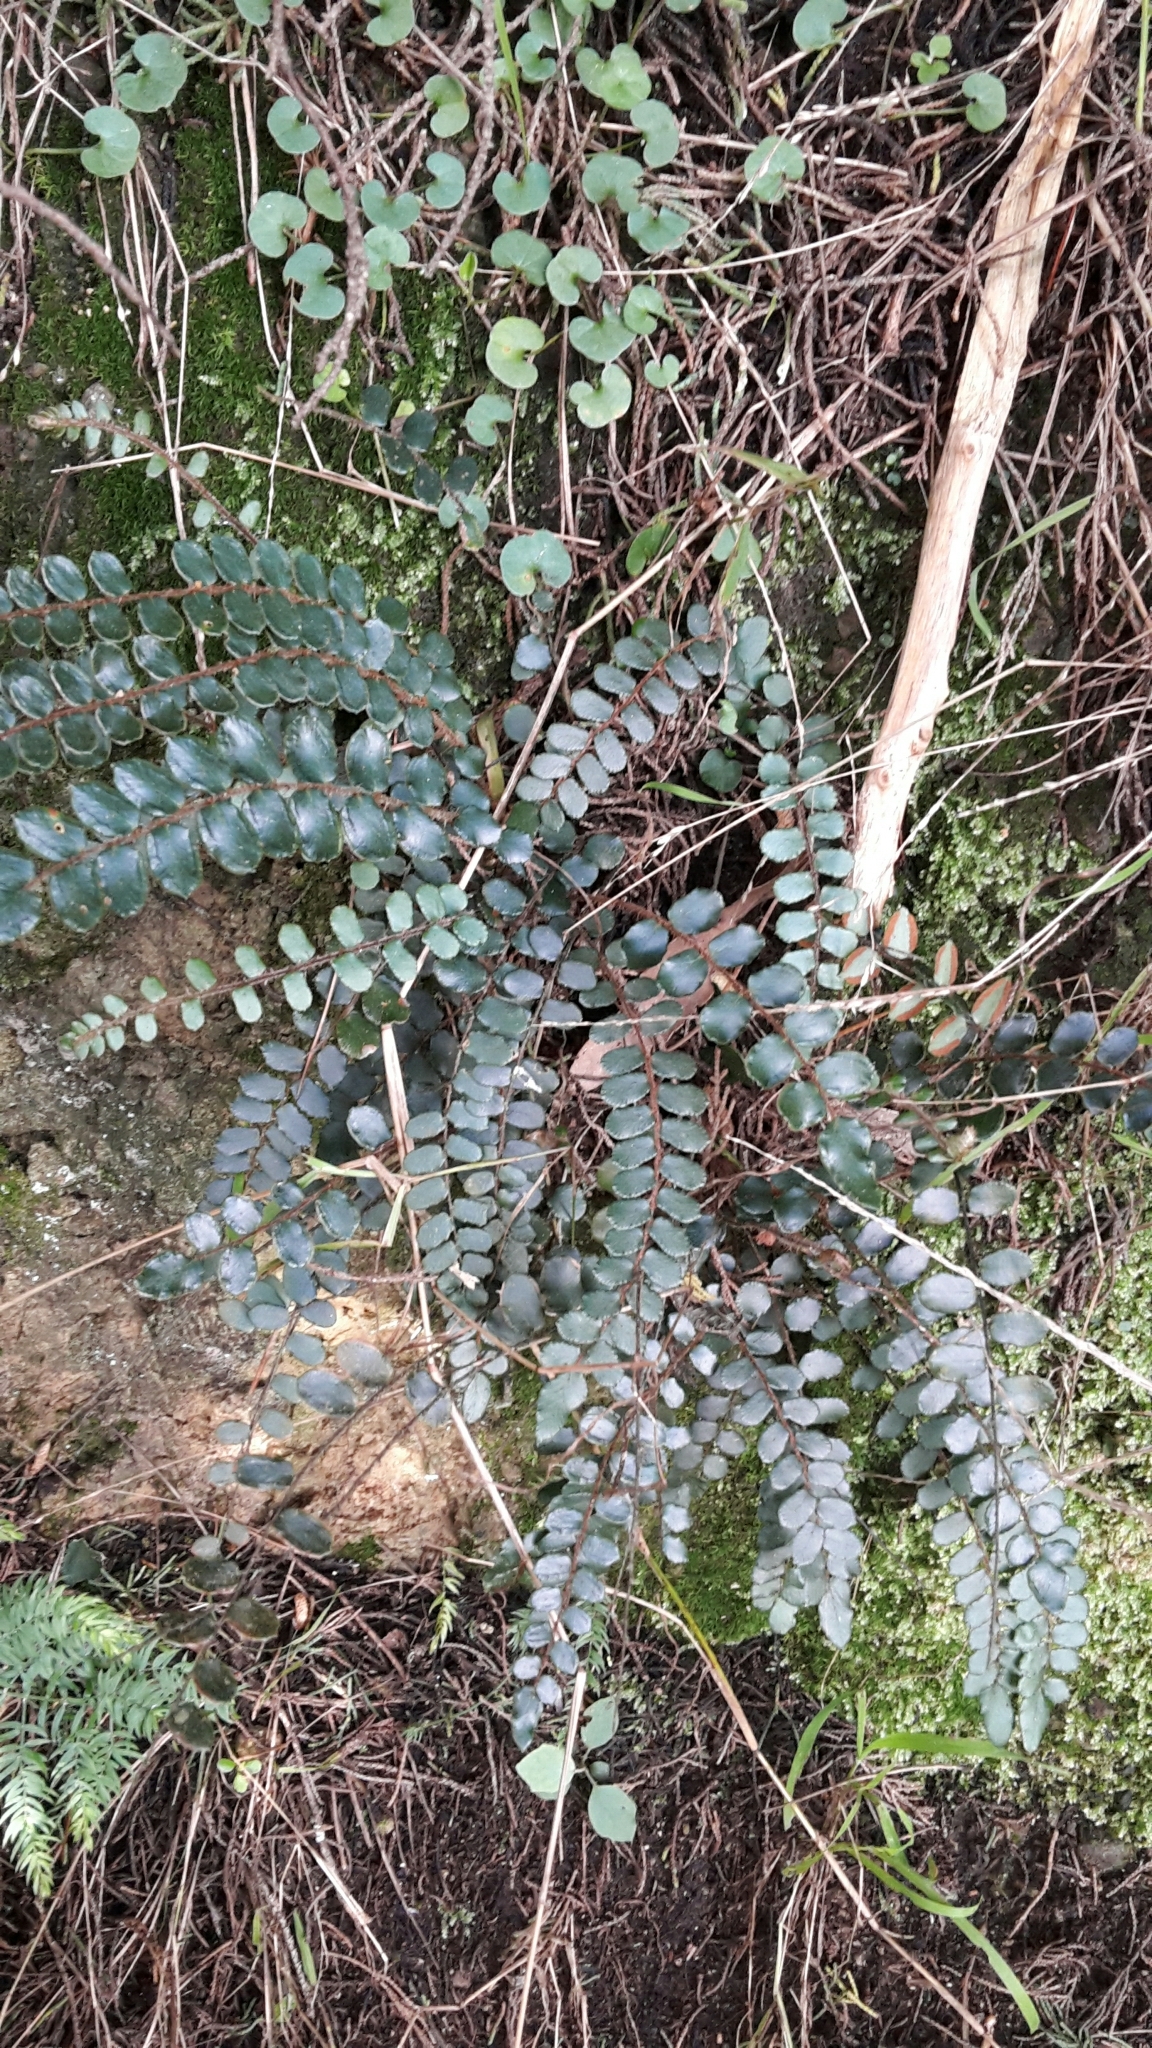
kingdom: Plantae
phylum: Tracheophyta
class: Polypodiopsida
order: Polypodiales
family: Pteridaceae
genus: Pellaea
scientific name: Pellaea rotundifolia
